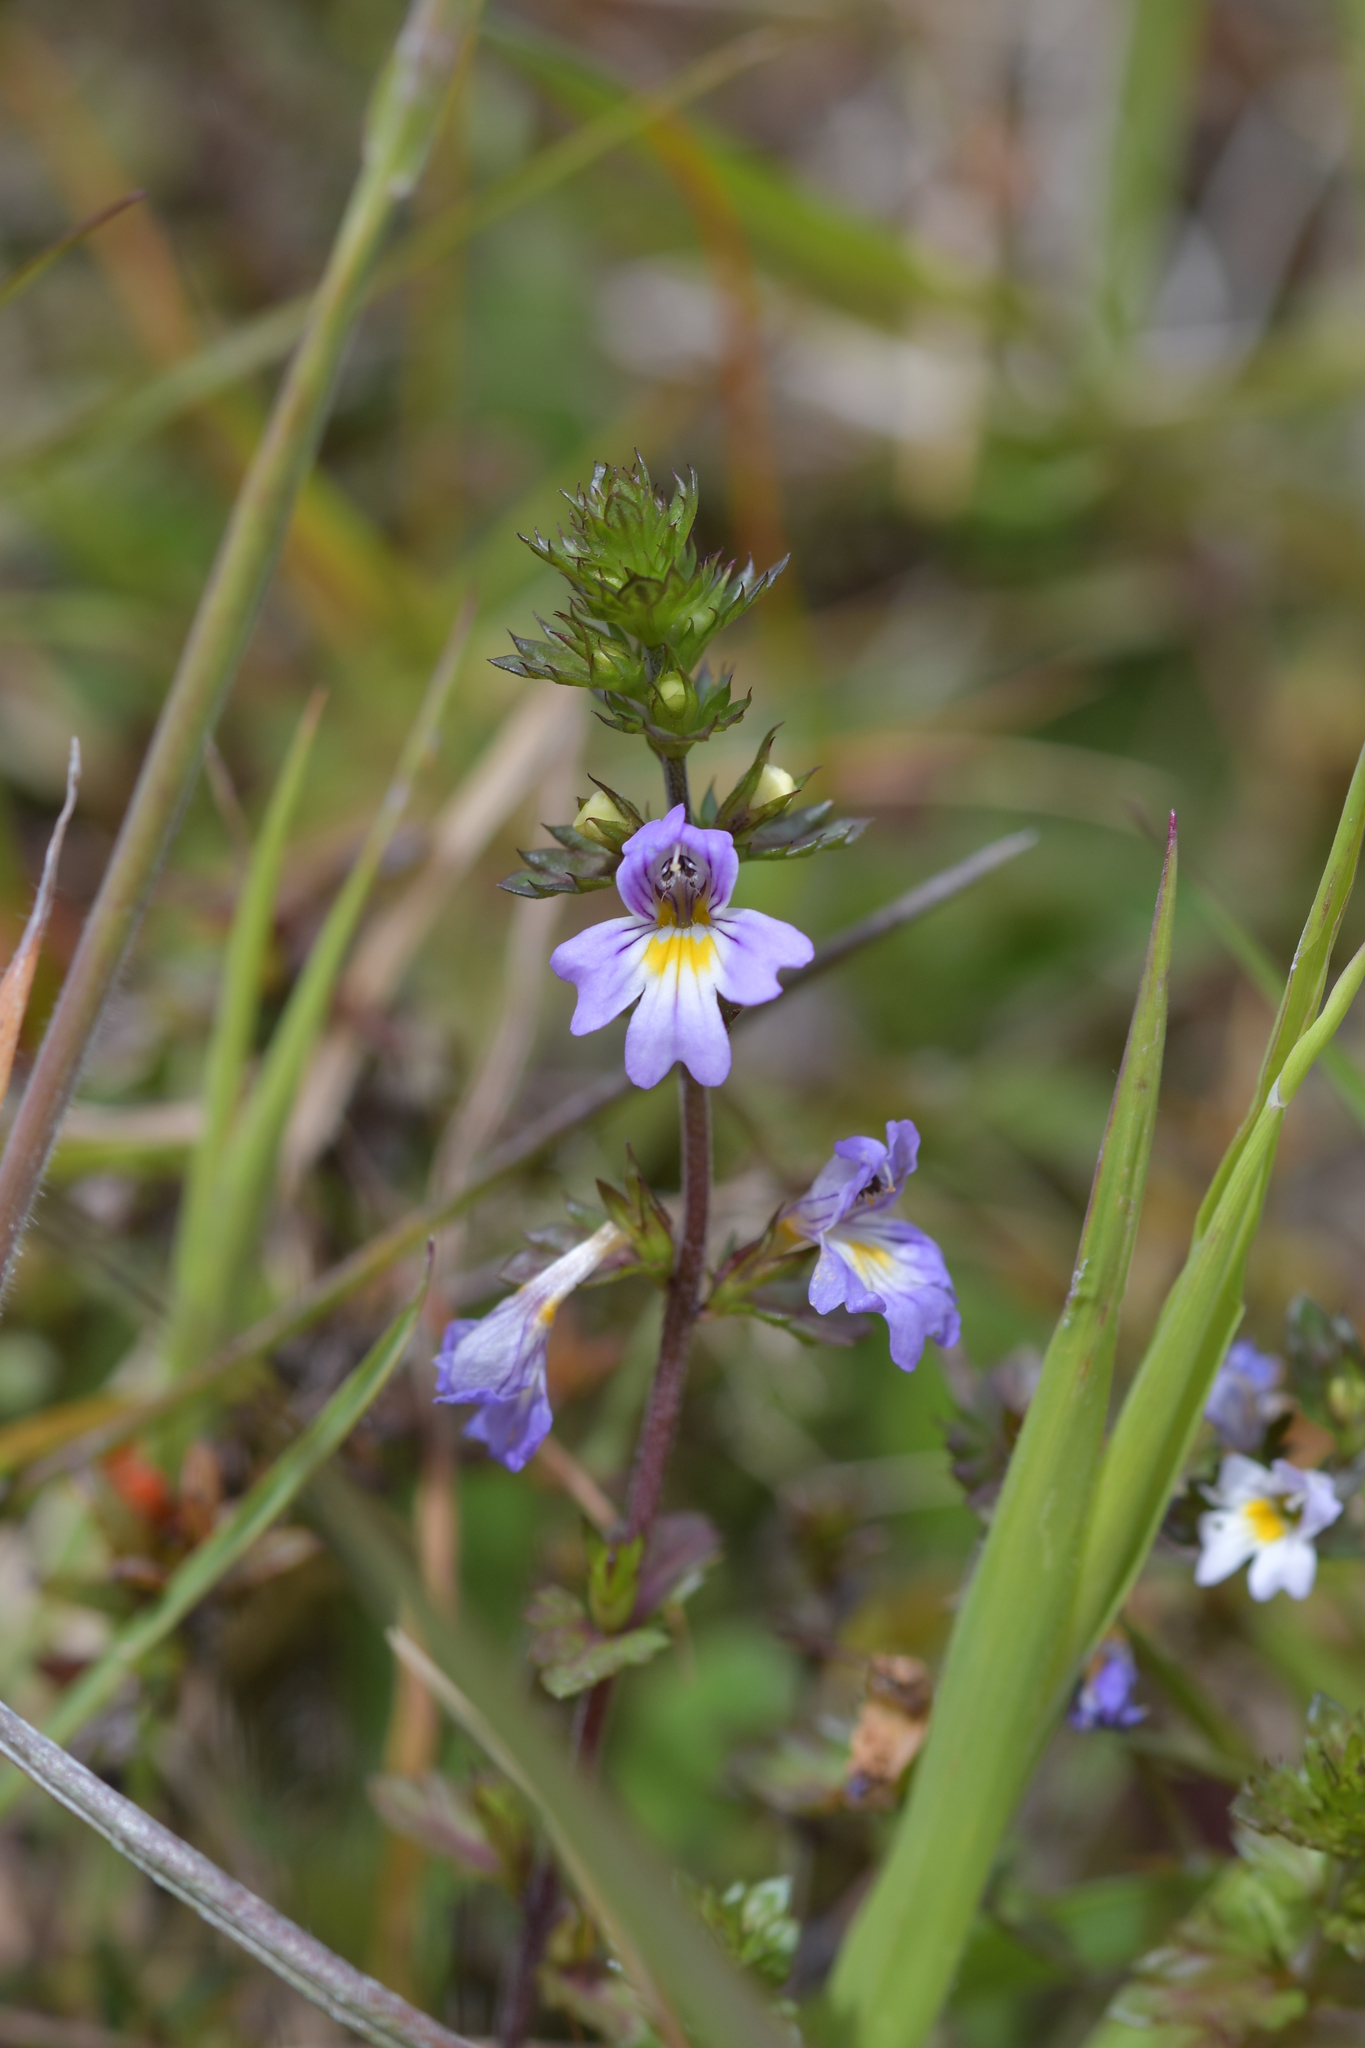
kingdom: Plantae
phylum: Tracheophyta
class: Magnoliopsida
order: Lamiales
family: Orobanchaceae
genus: Euphrasia
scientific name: Euphrasia nemorosa
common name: Common eyebright
